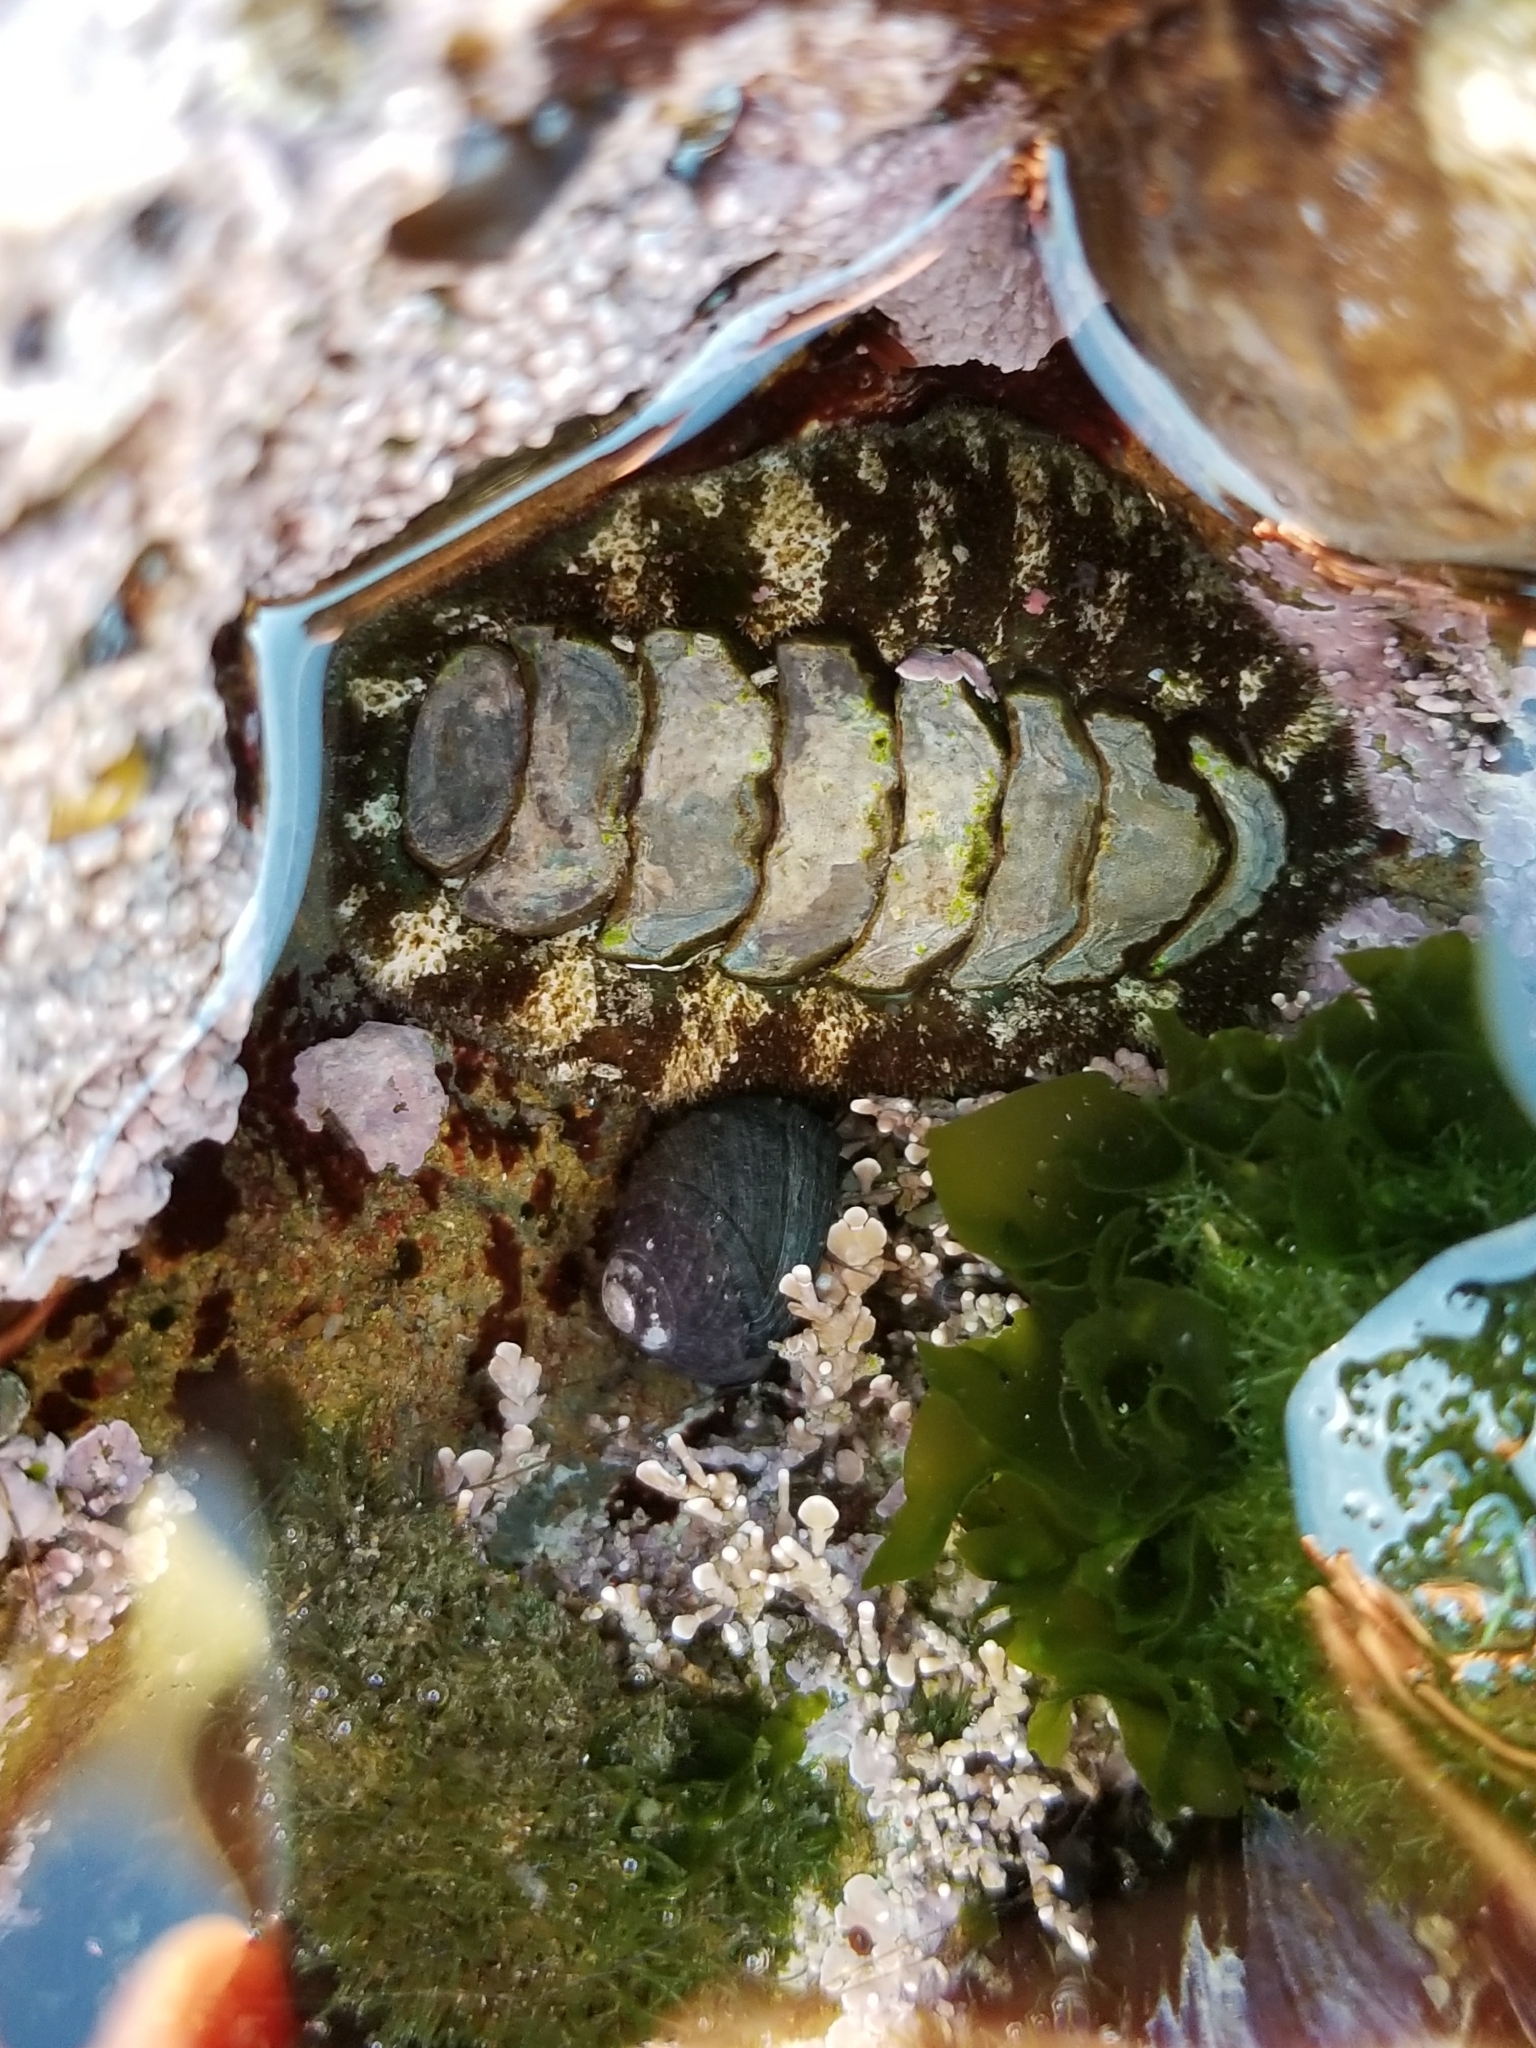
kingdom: Animalia
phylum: Mollusca
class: Polyplacophora
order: Chitonida
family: Tonicellidae
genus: Nuttallina
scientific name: Nuttallina californica
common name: California nuttall chiton
